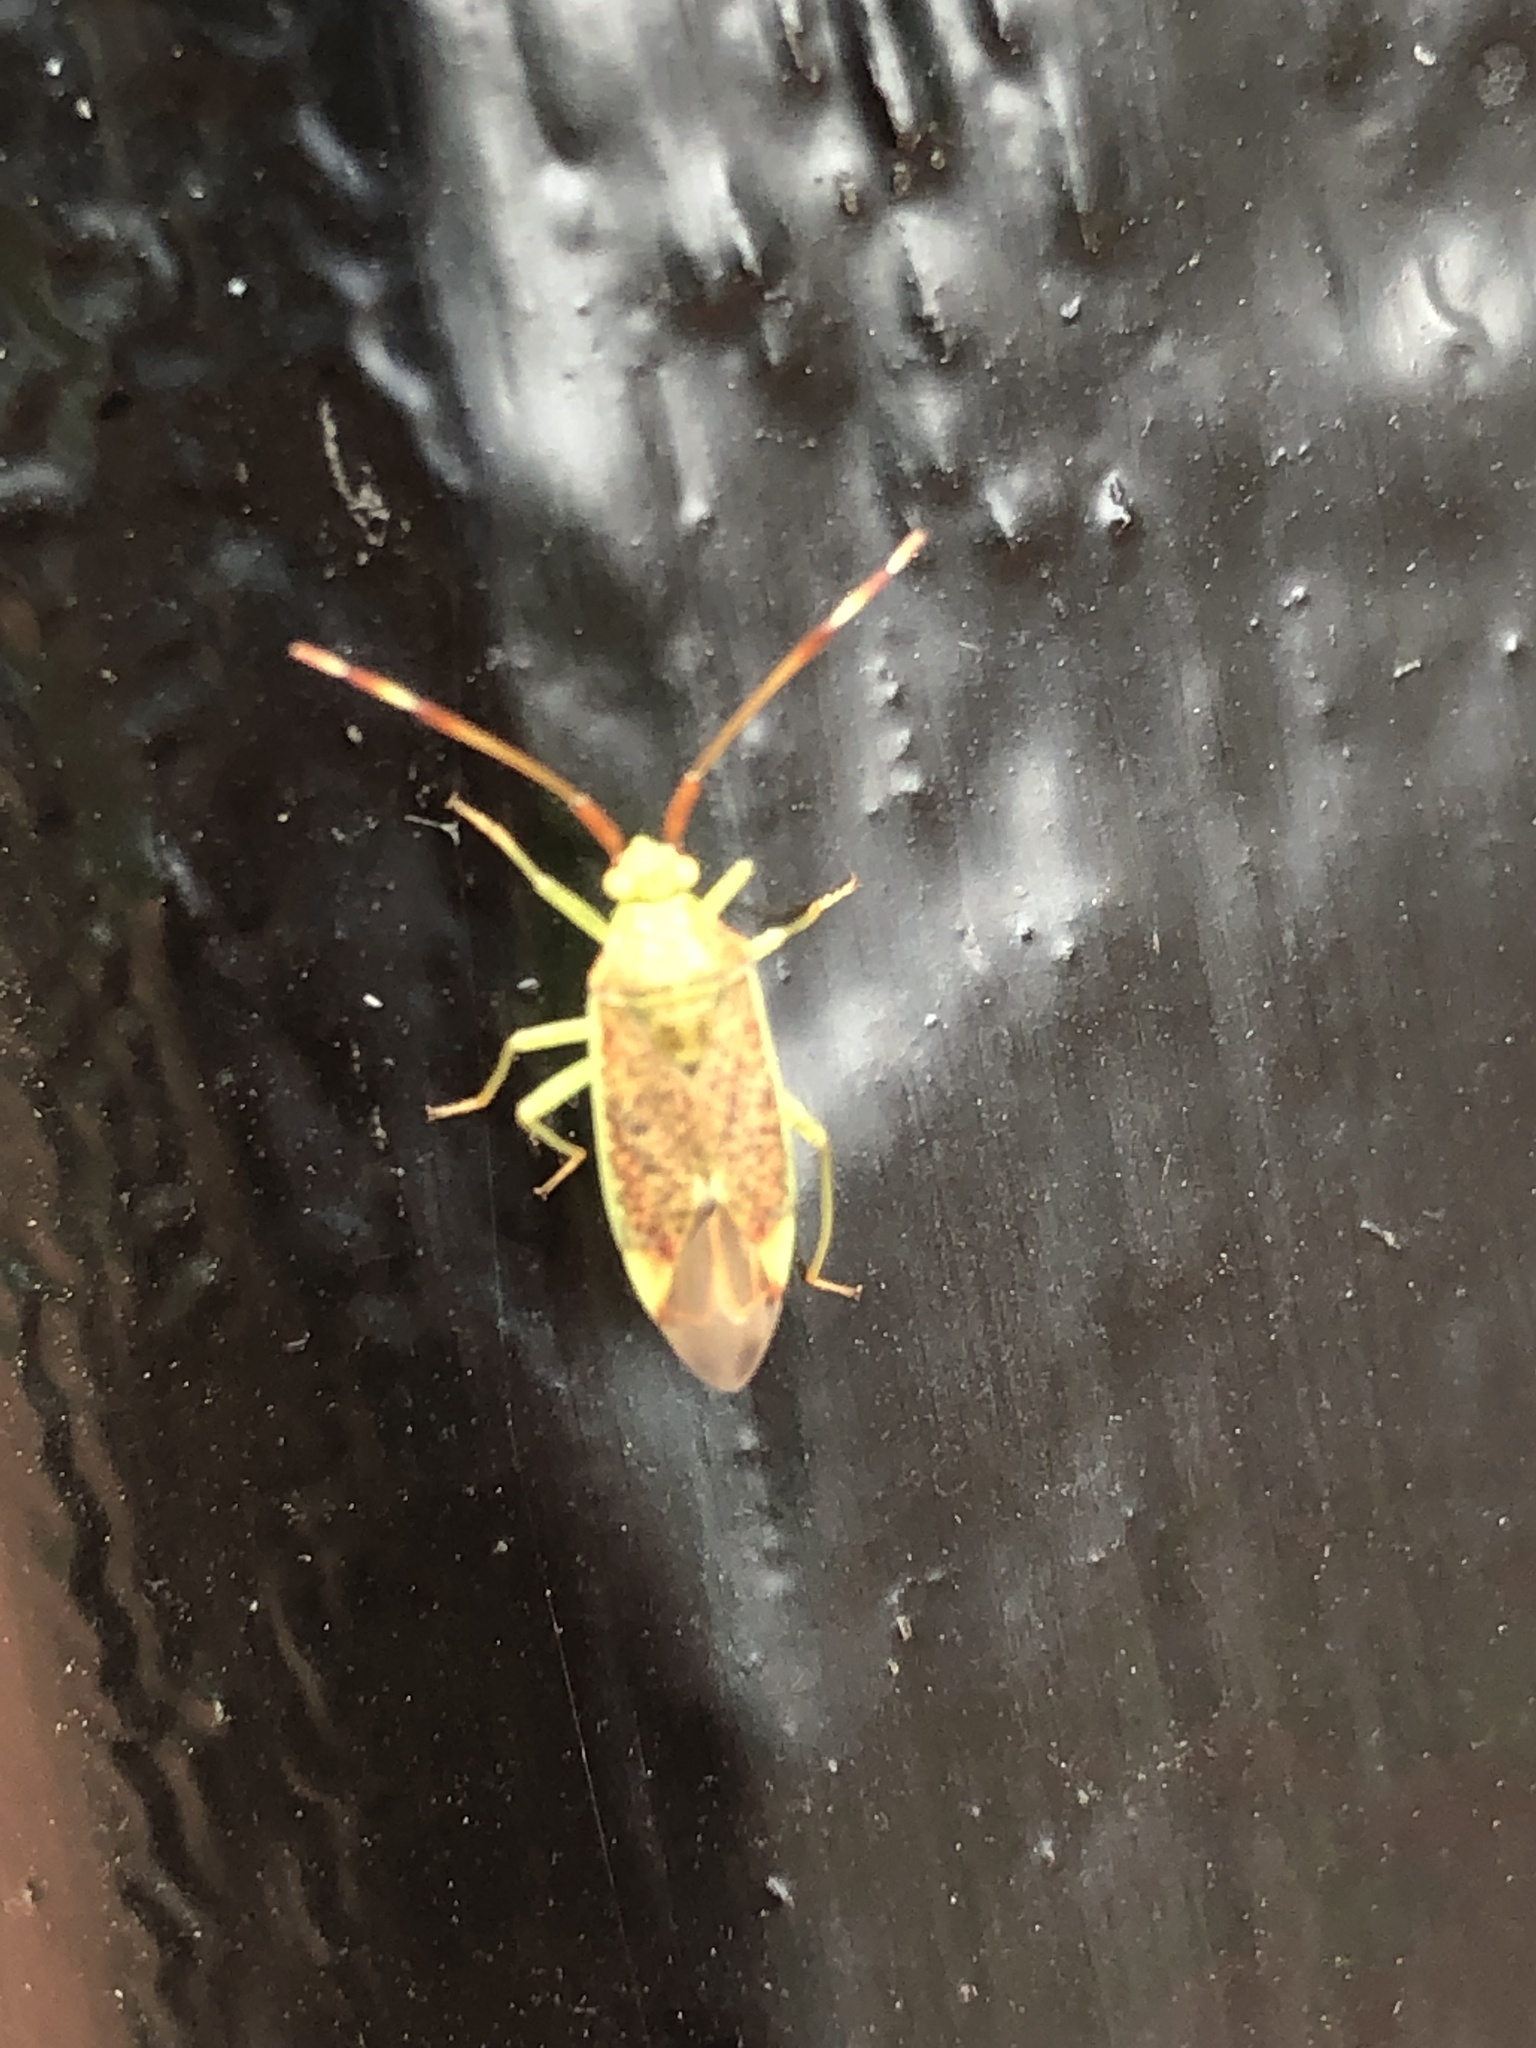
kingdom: Animalia
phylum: Arthropoda
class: Insecta
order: Hemiptera
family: Miridae
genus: Pantilius
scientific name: Pantilius tunicatus
